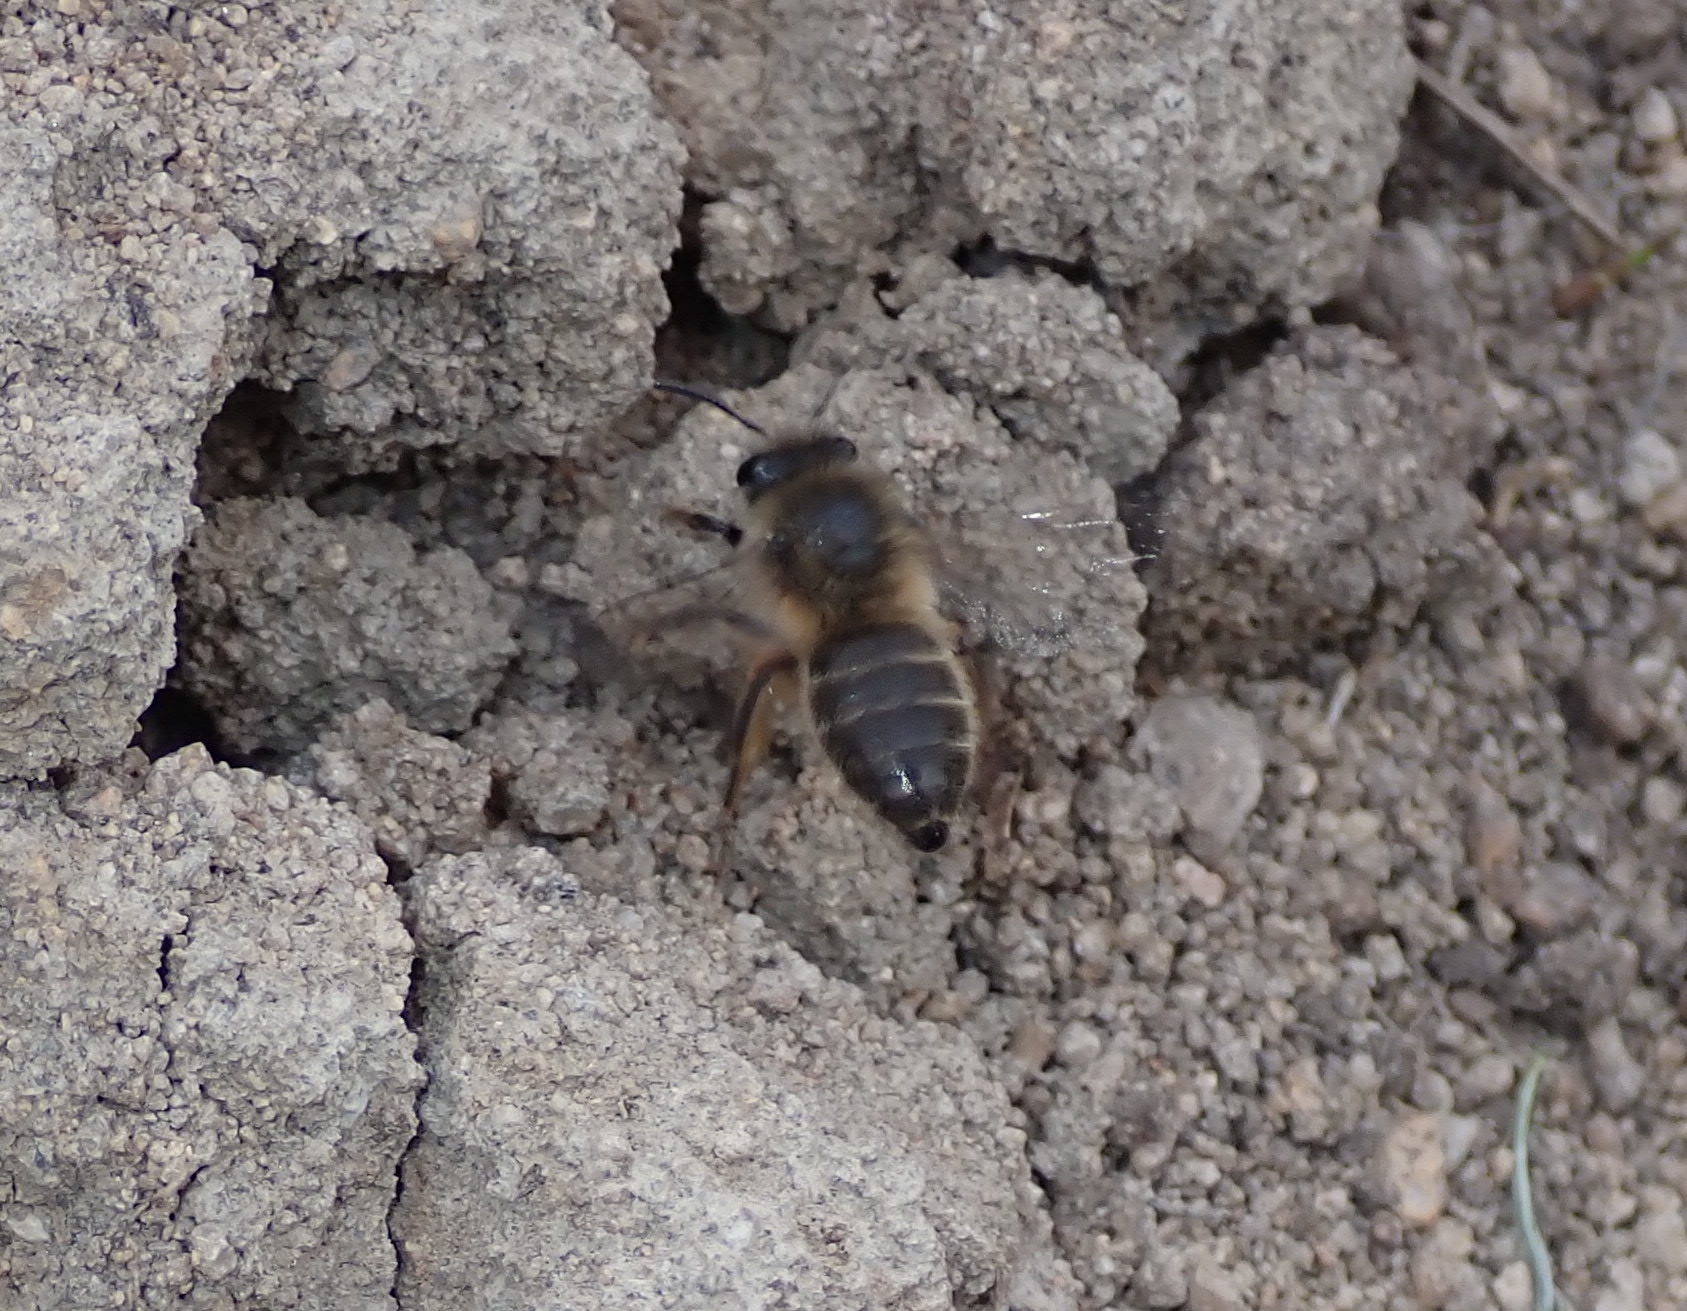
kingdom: Animalia
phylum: Arthropoda
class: Insecta
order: Hymenoptera
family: Colletidae
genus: Colletes
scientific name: Colletes cunicularius
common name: Early colletes
